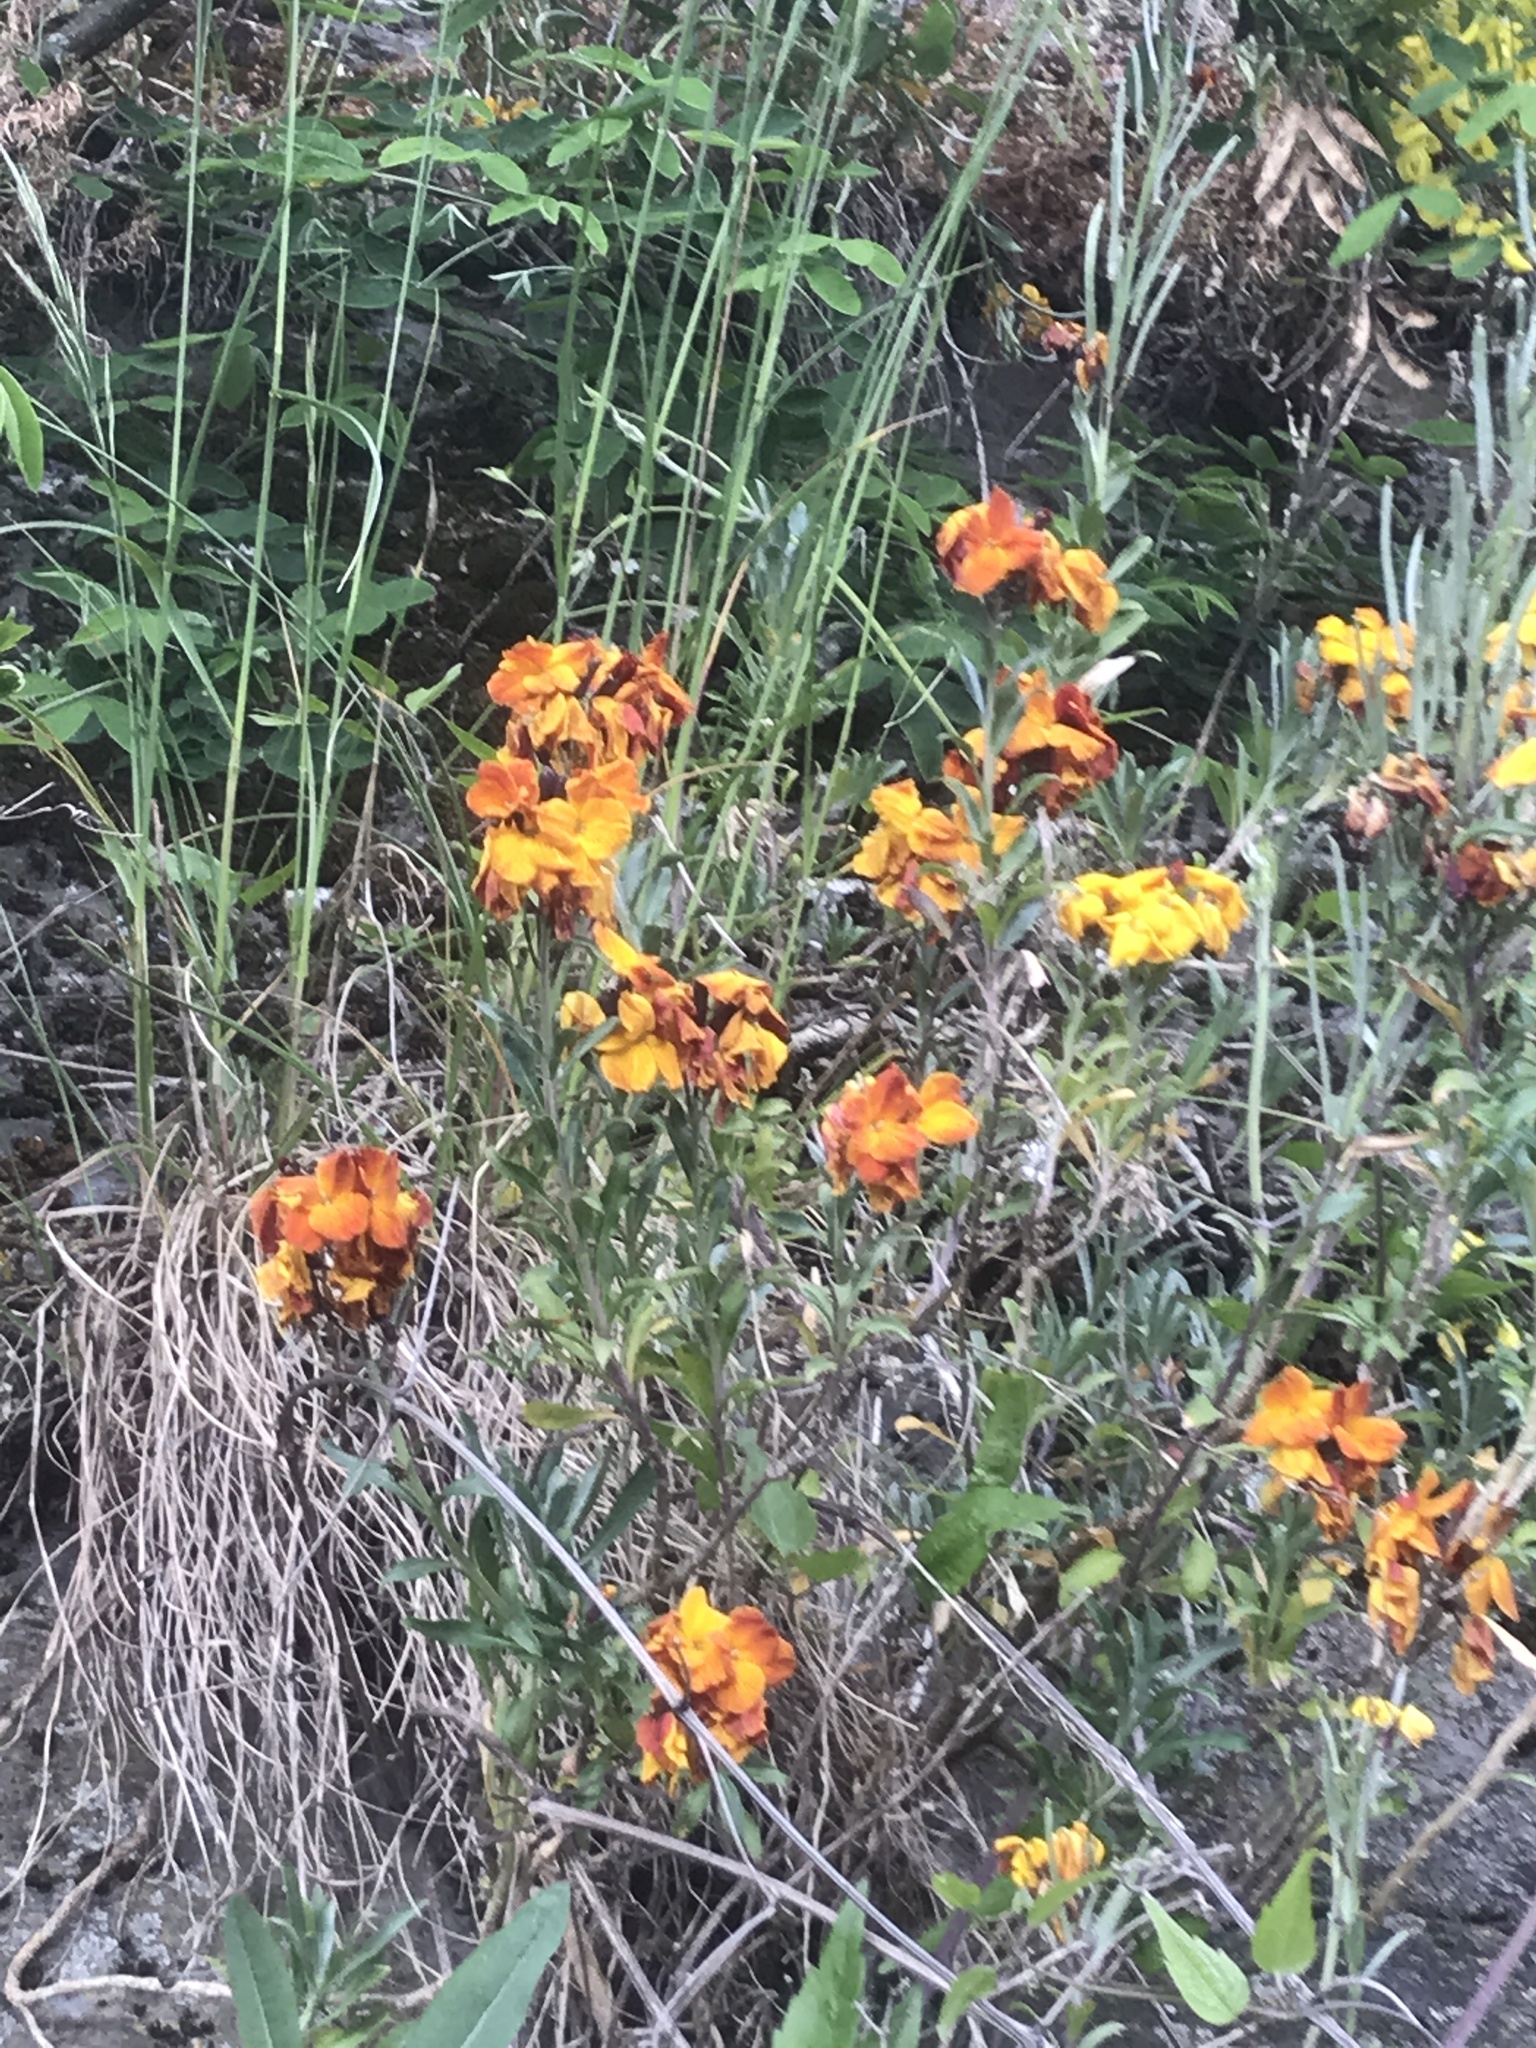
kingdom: Plantae
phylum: Tracheophyta
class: Magnoliopsida
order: Brassicales
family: Brassicaceae
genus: Erysimum
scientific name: Erysimum cheiri
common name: Wallflower
